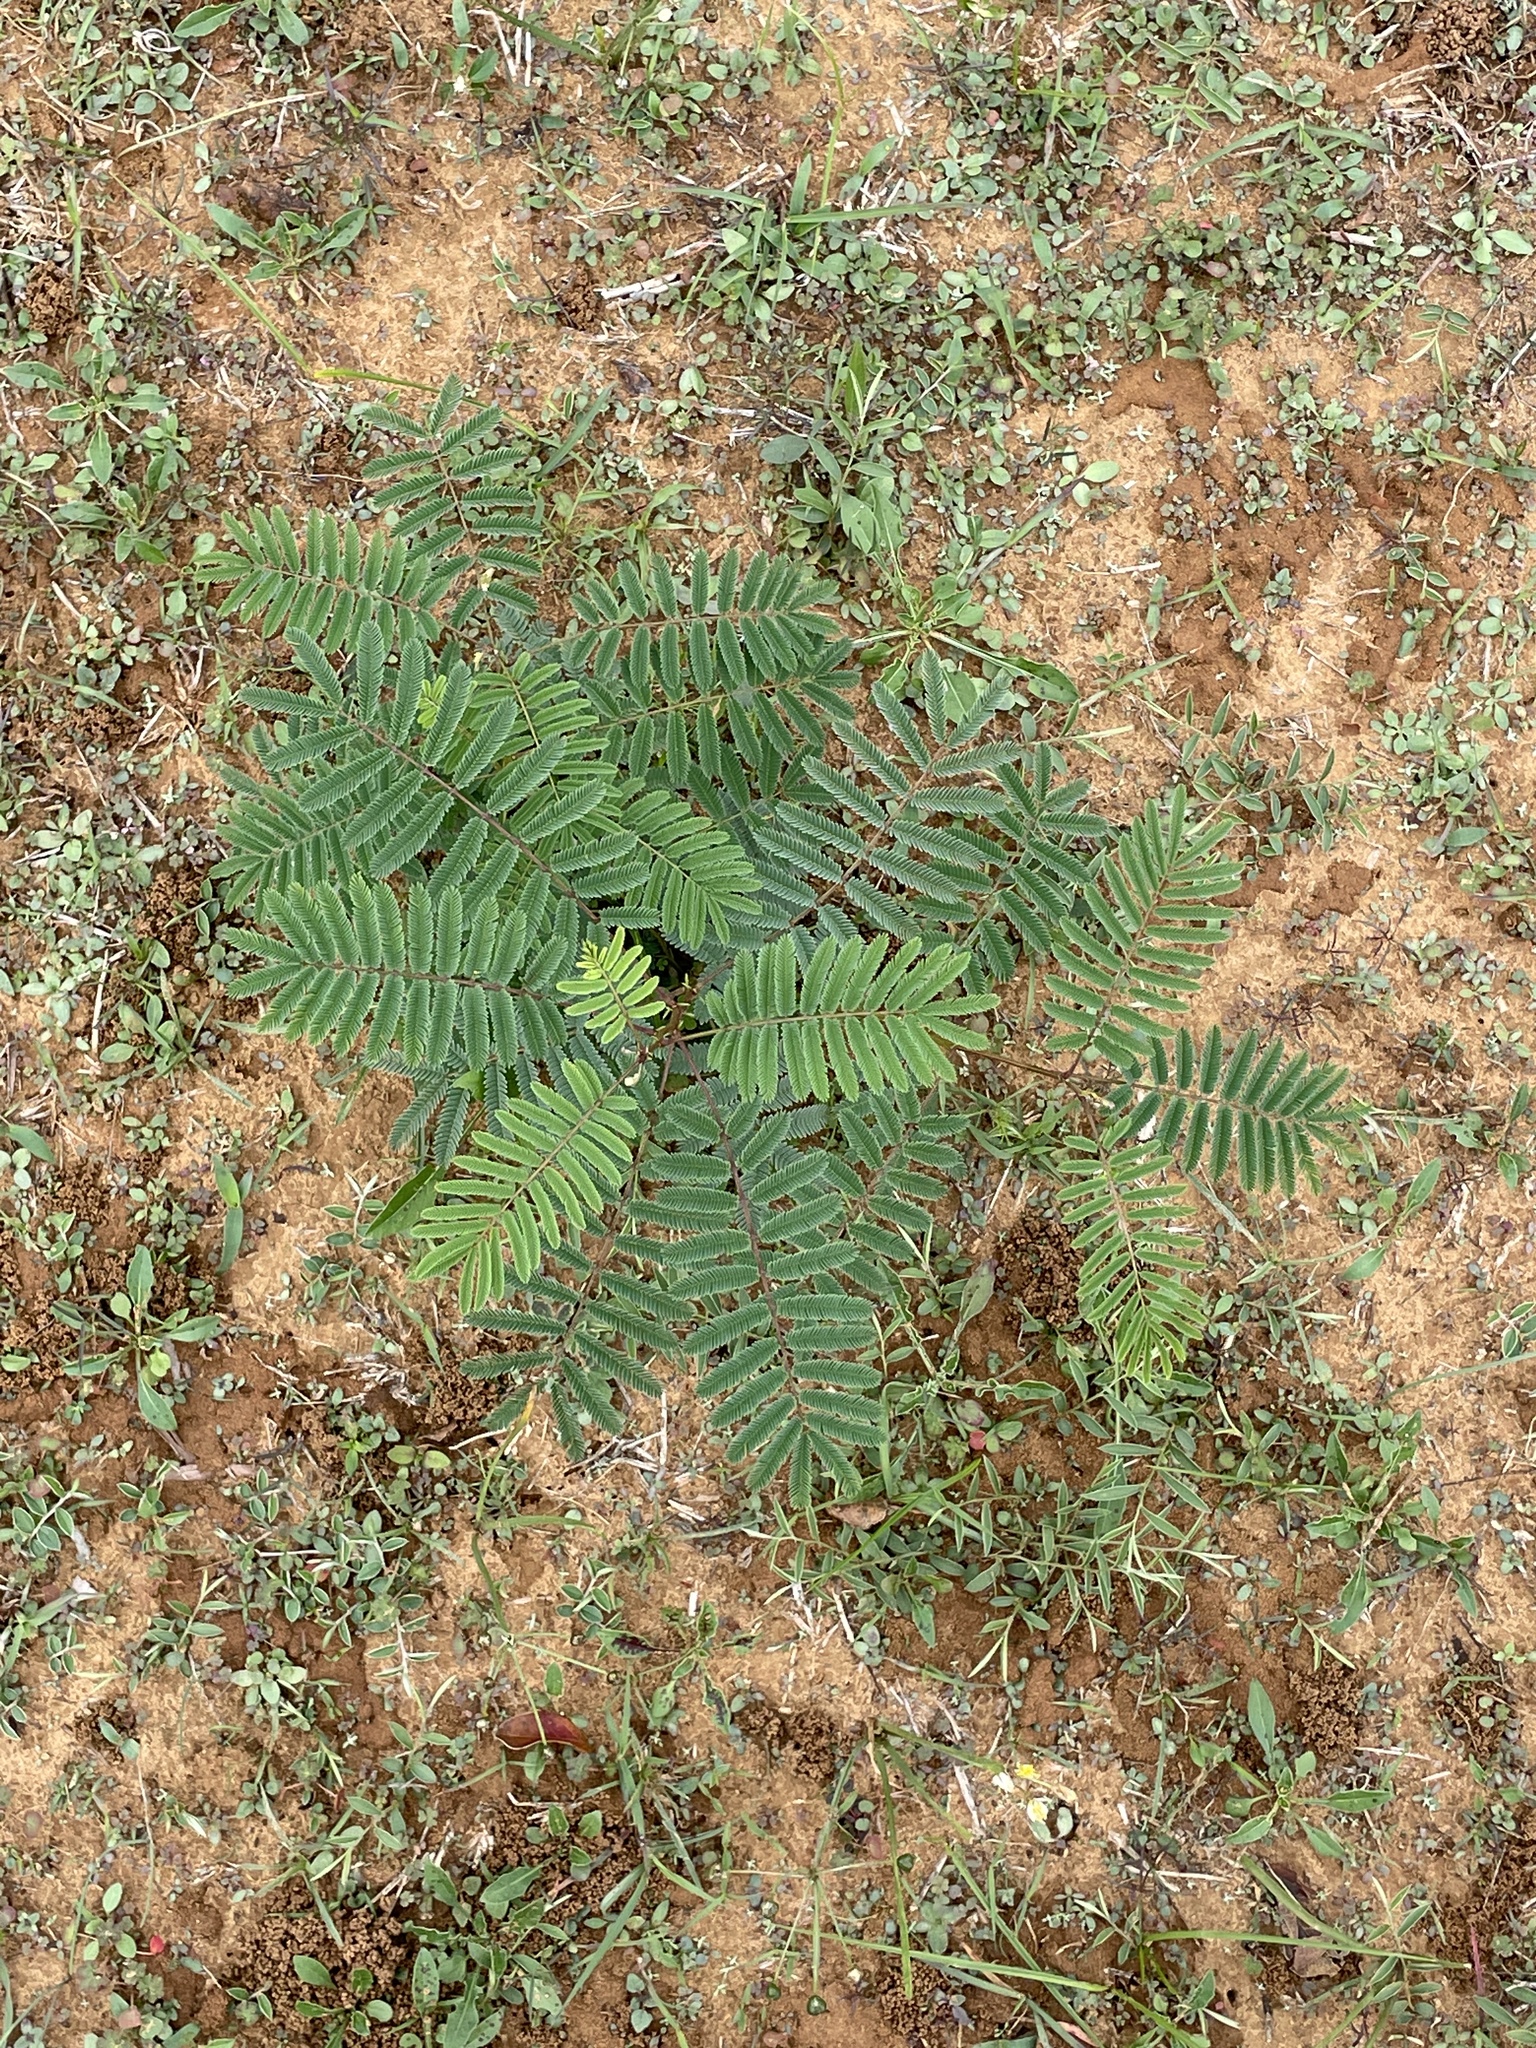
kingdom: Plantae
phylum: Tracheophyta
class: Magnoliopsida
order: Fabales
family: Fabaceae
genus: Acaciella
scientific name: Acaciella angustissima
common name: Prairie acacia
